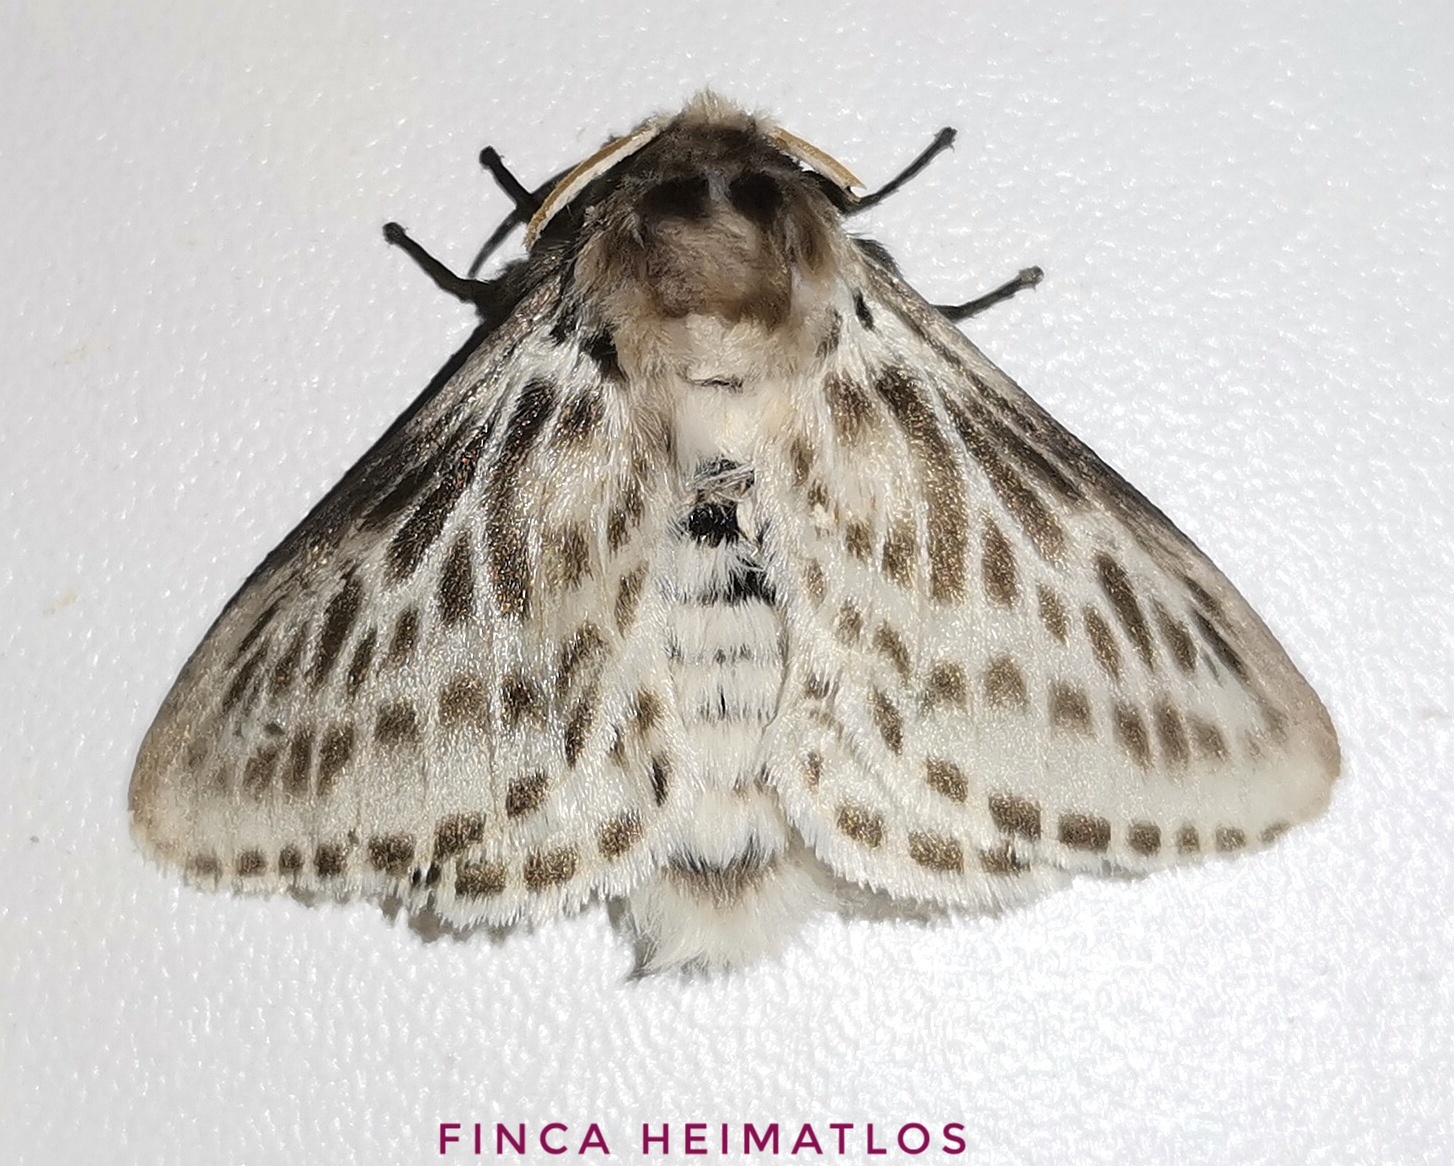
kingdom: Animalia
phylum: Arthropoda
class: Insecta
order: Lepidoptera
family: Megalopygidae
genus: Podalia
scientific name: Podalia gamelia
